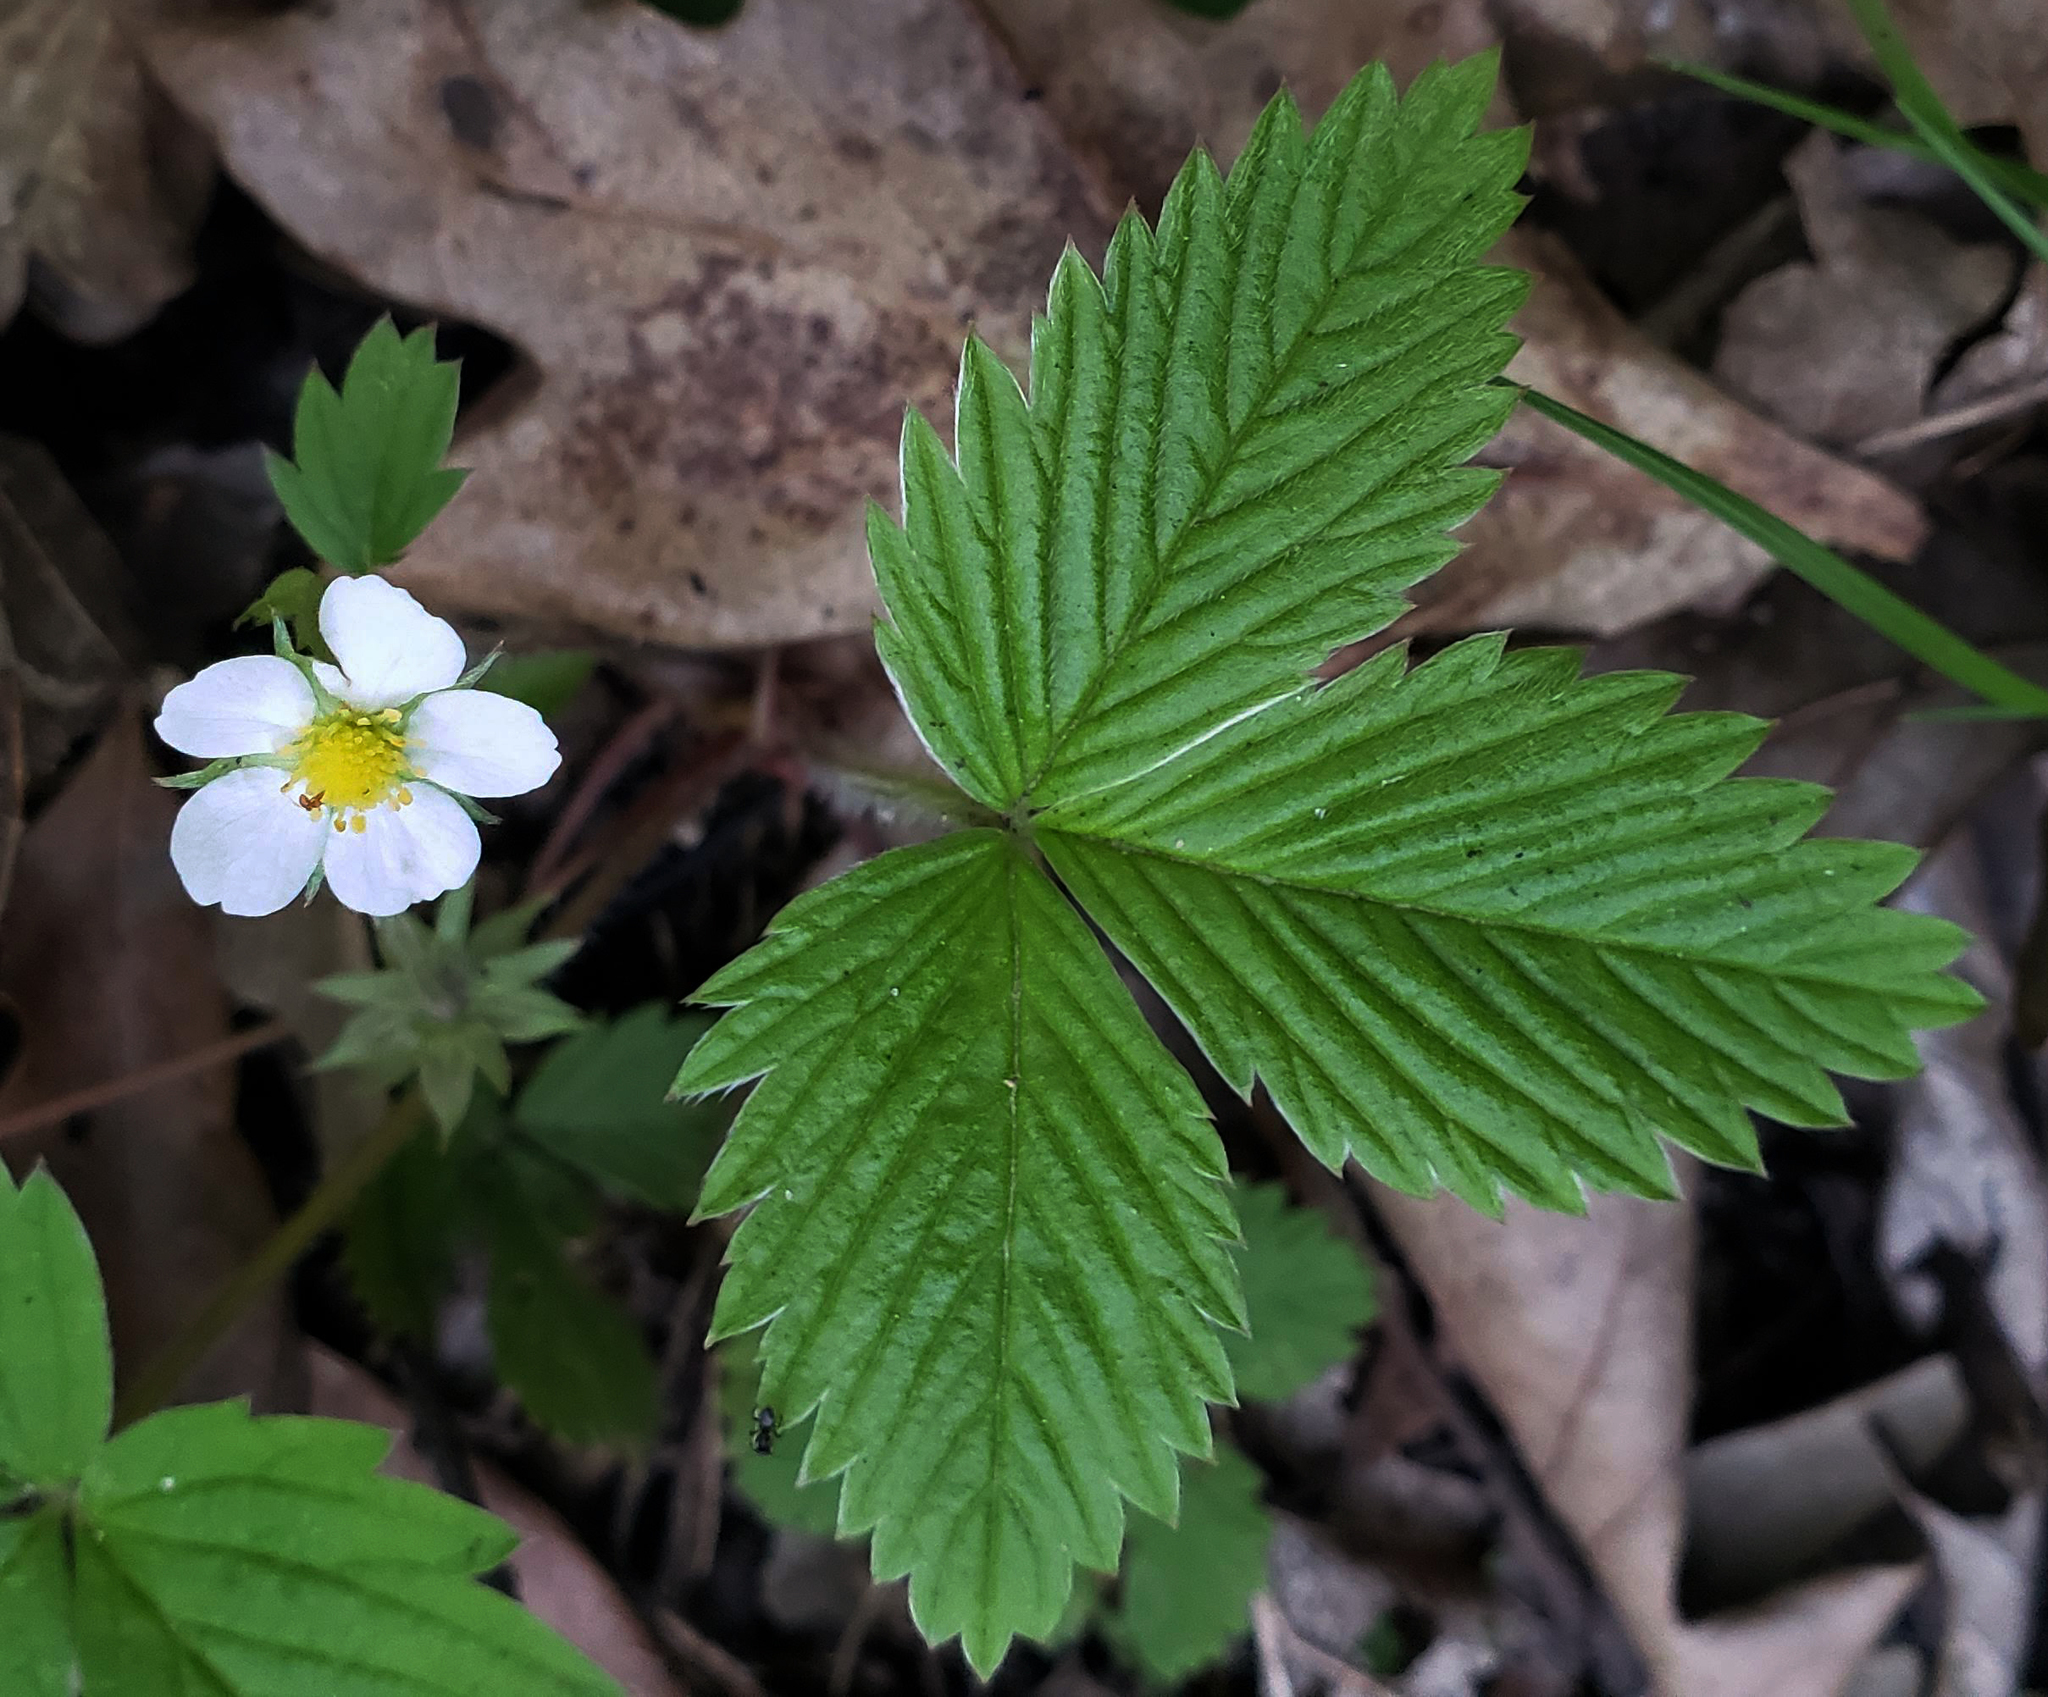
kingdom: Plantae
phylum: Tracheophyta
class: Magnoliopsida
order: Rosales
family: Rosaceae
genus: Fragaria
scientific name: Fragaria vesca
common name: Wild strawberry
